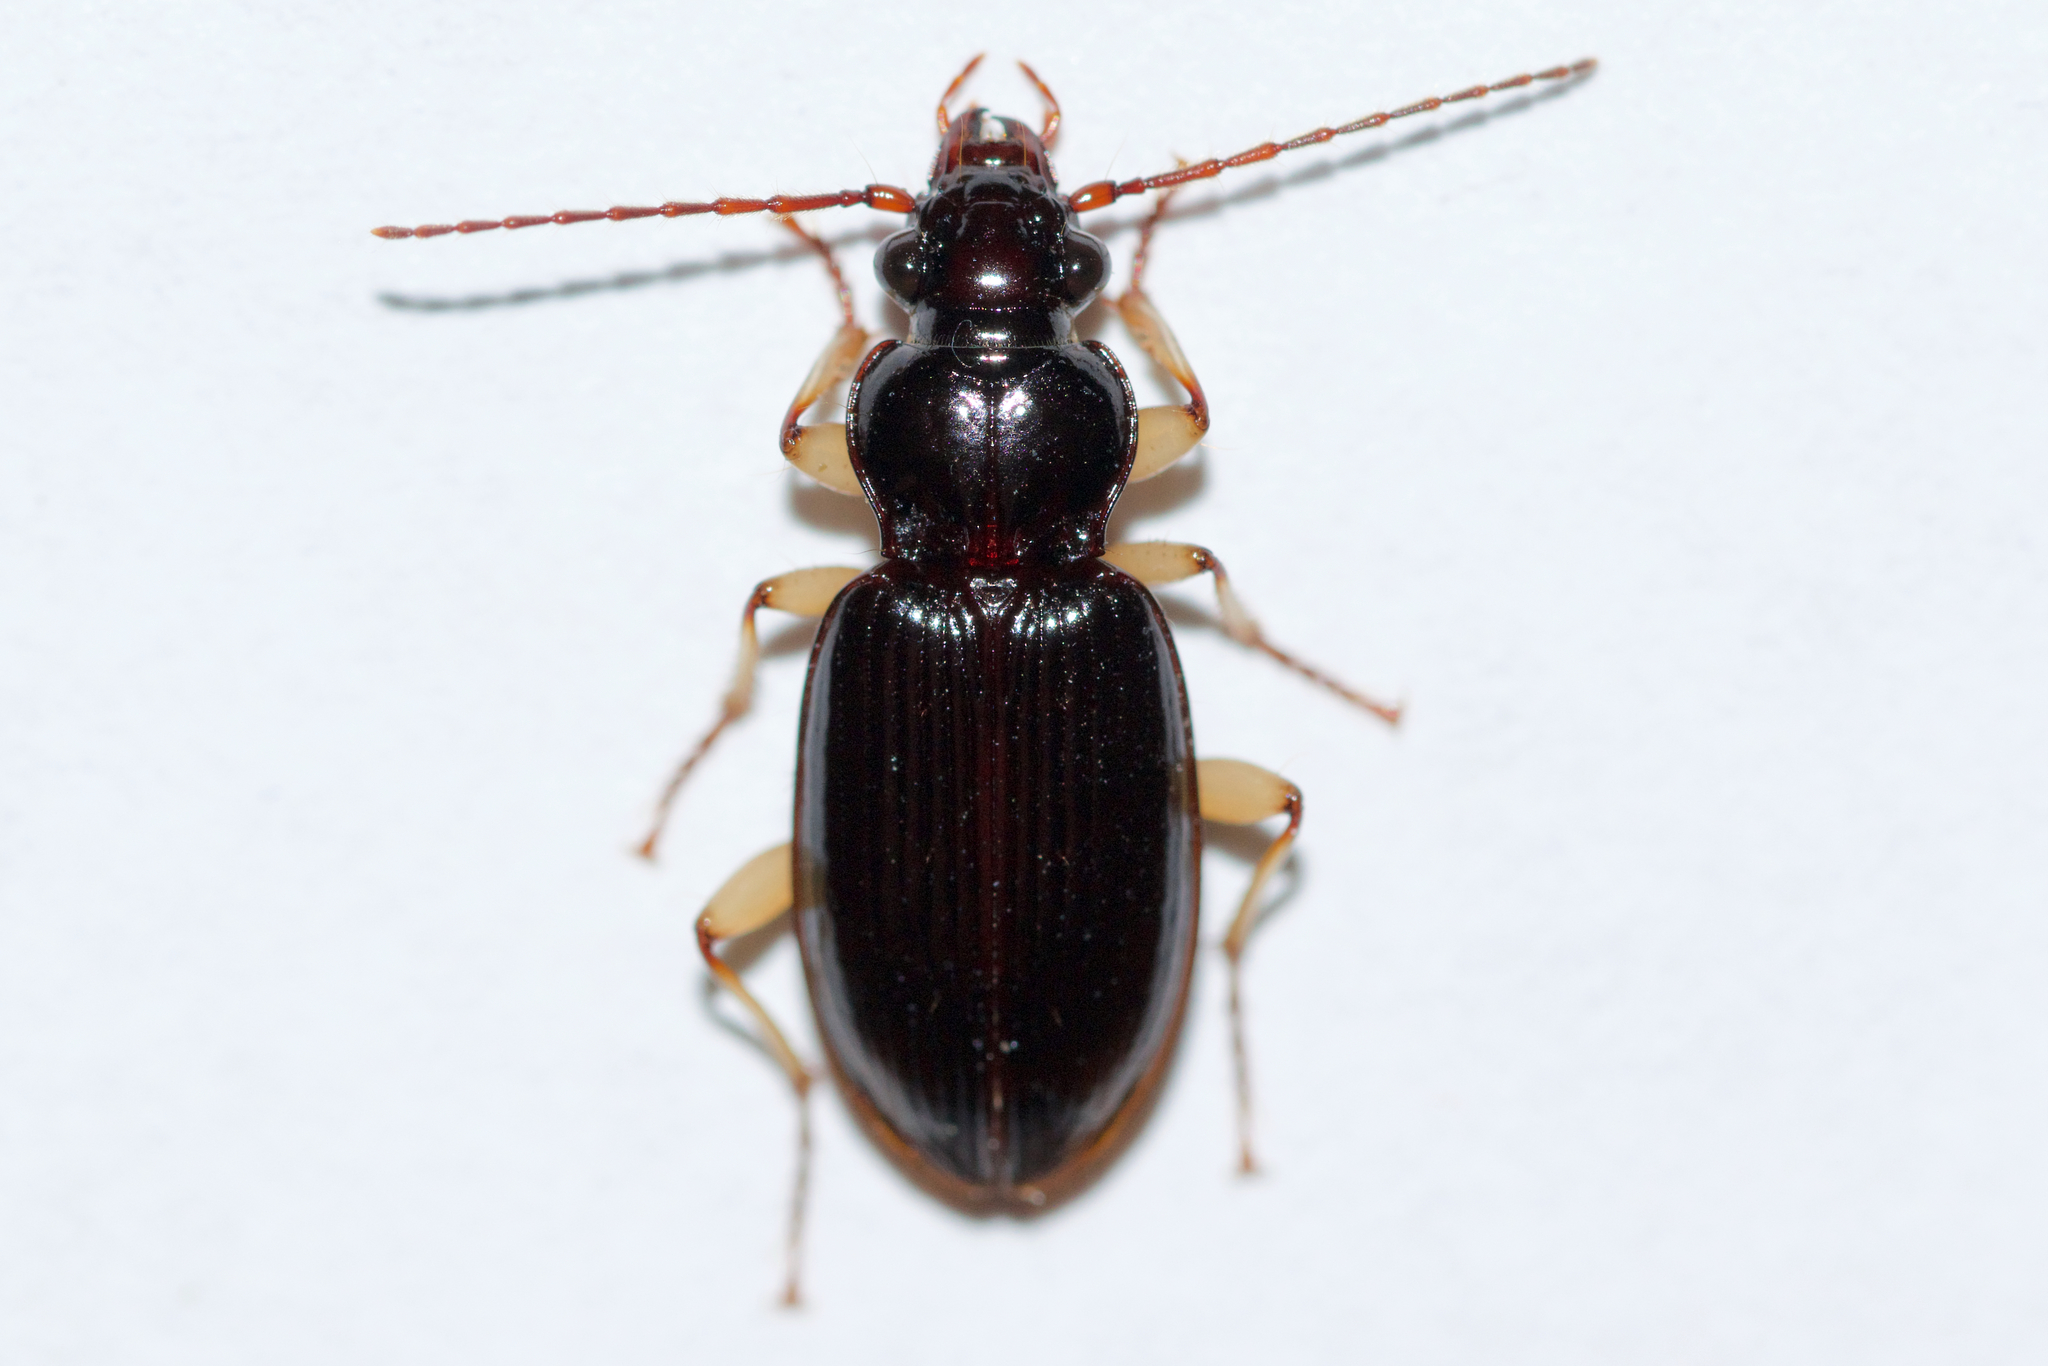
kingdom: Animalia
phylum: Arthropoda
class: Insecta
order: Coleoptera
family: Carabidae
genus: Patrobus
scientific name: Patrobus longicornis
